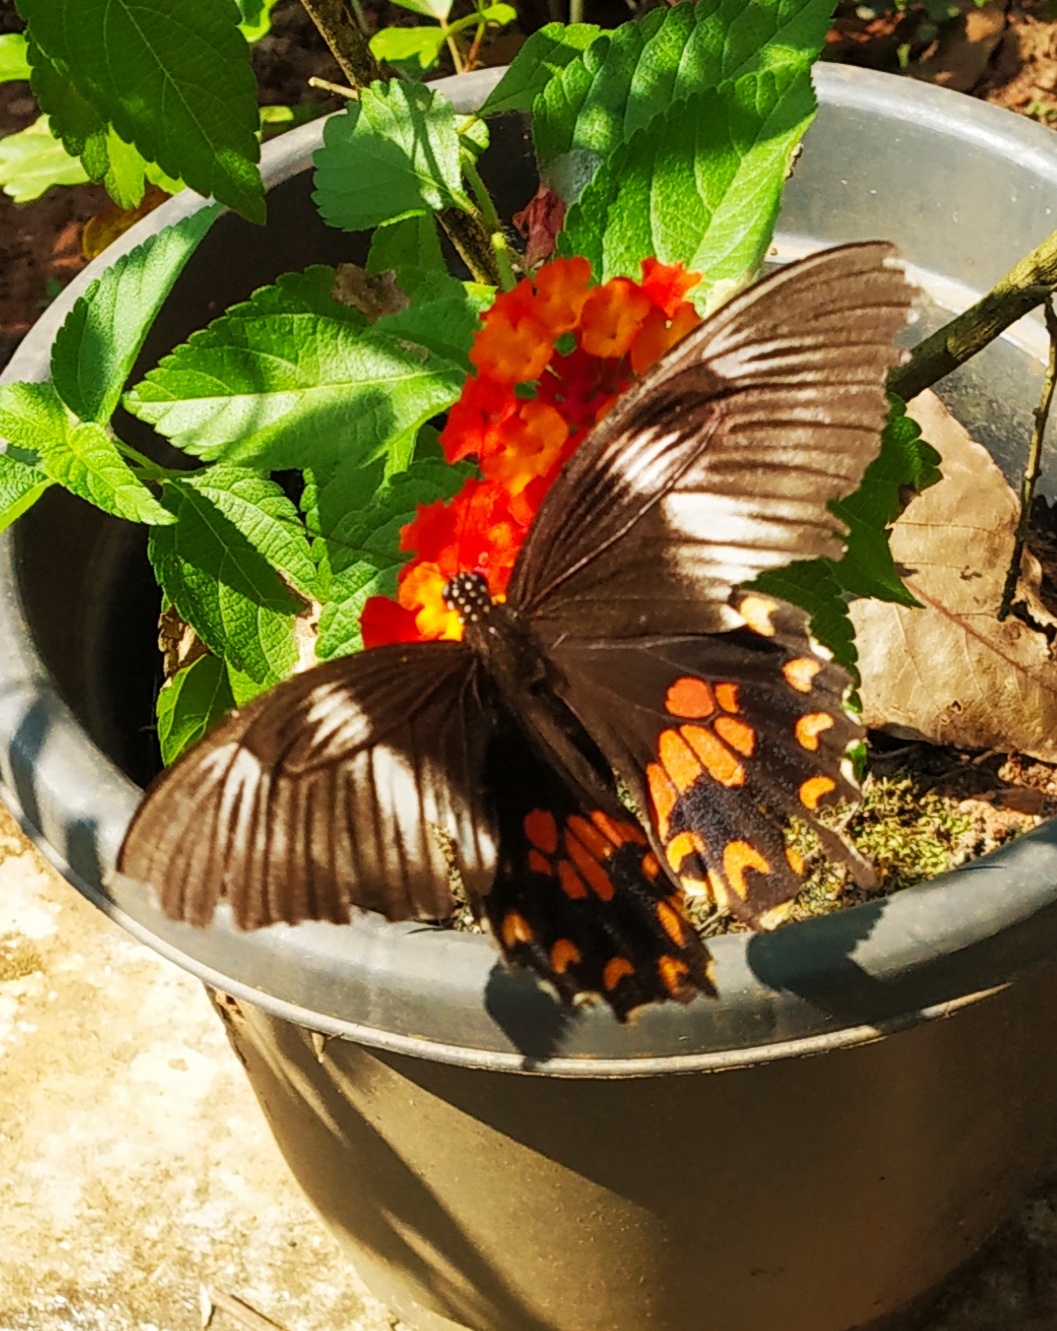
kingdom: Animalia
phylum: Arthropoda
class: Insecta
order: Lepidoptera
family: Papilionidae
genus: Papilio
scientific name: Papilio polytes
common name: Common mormon
